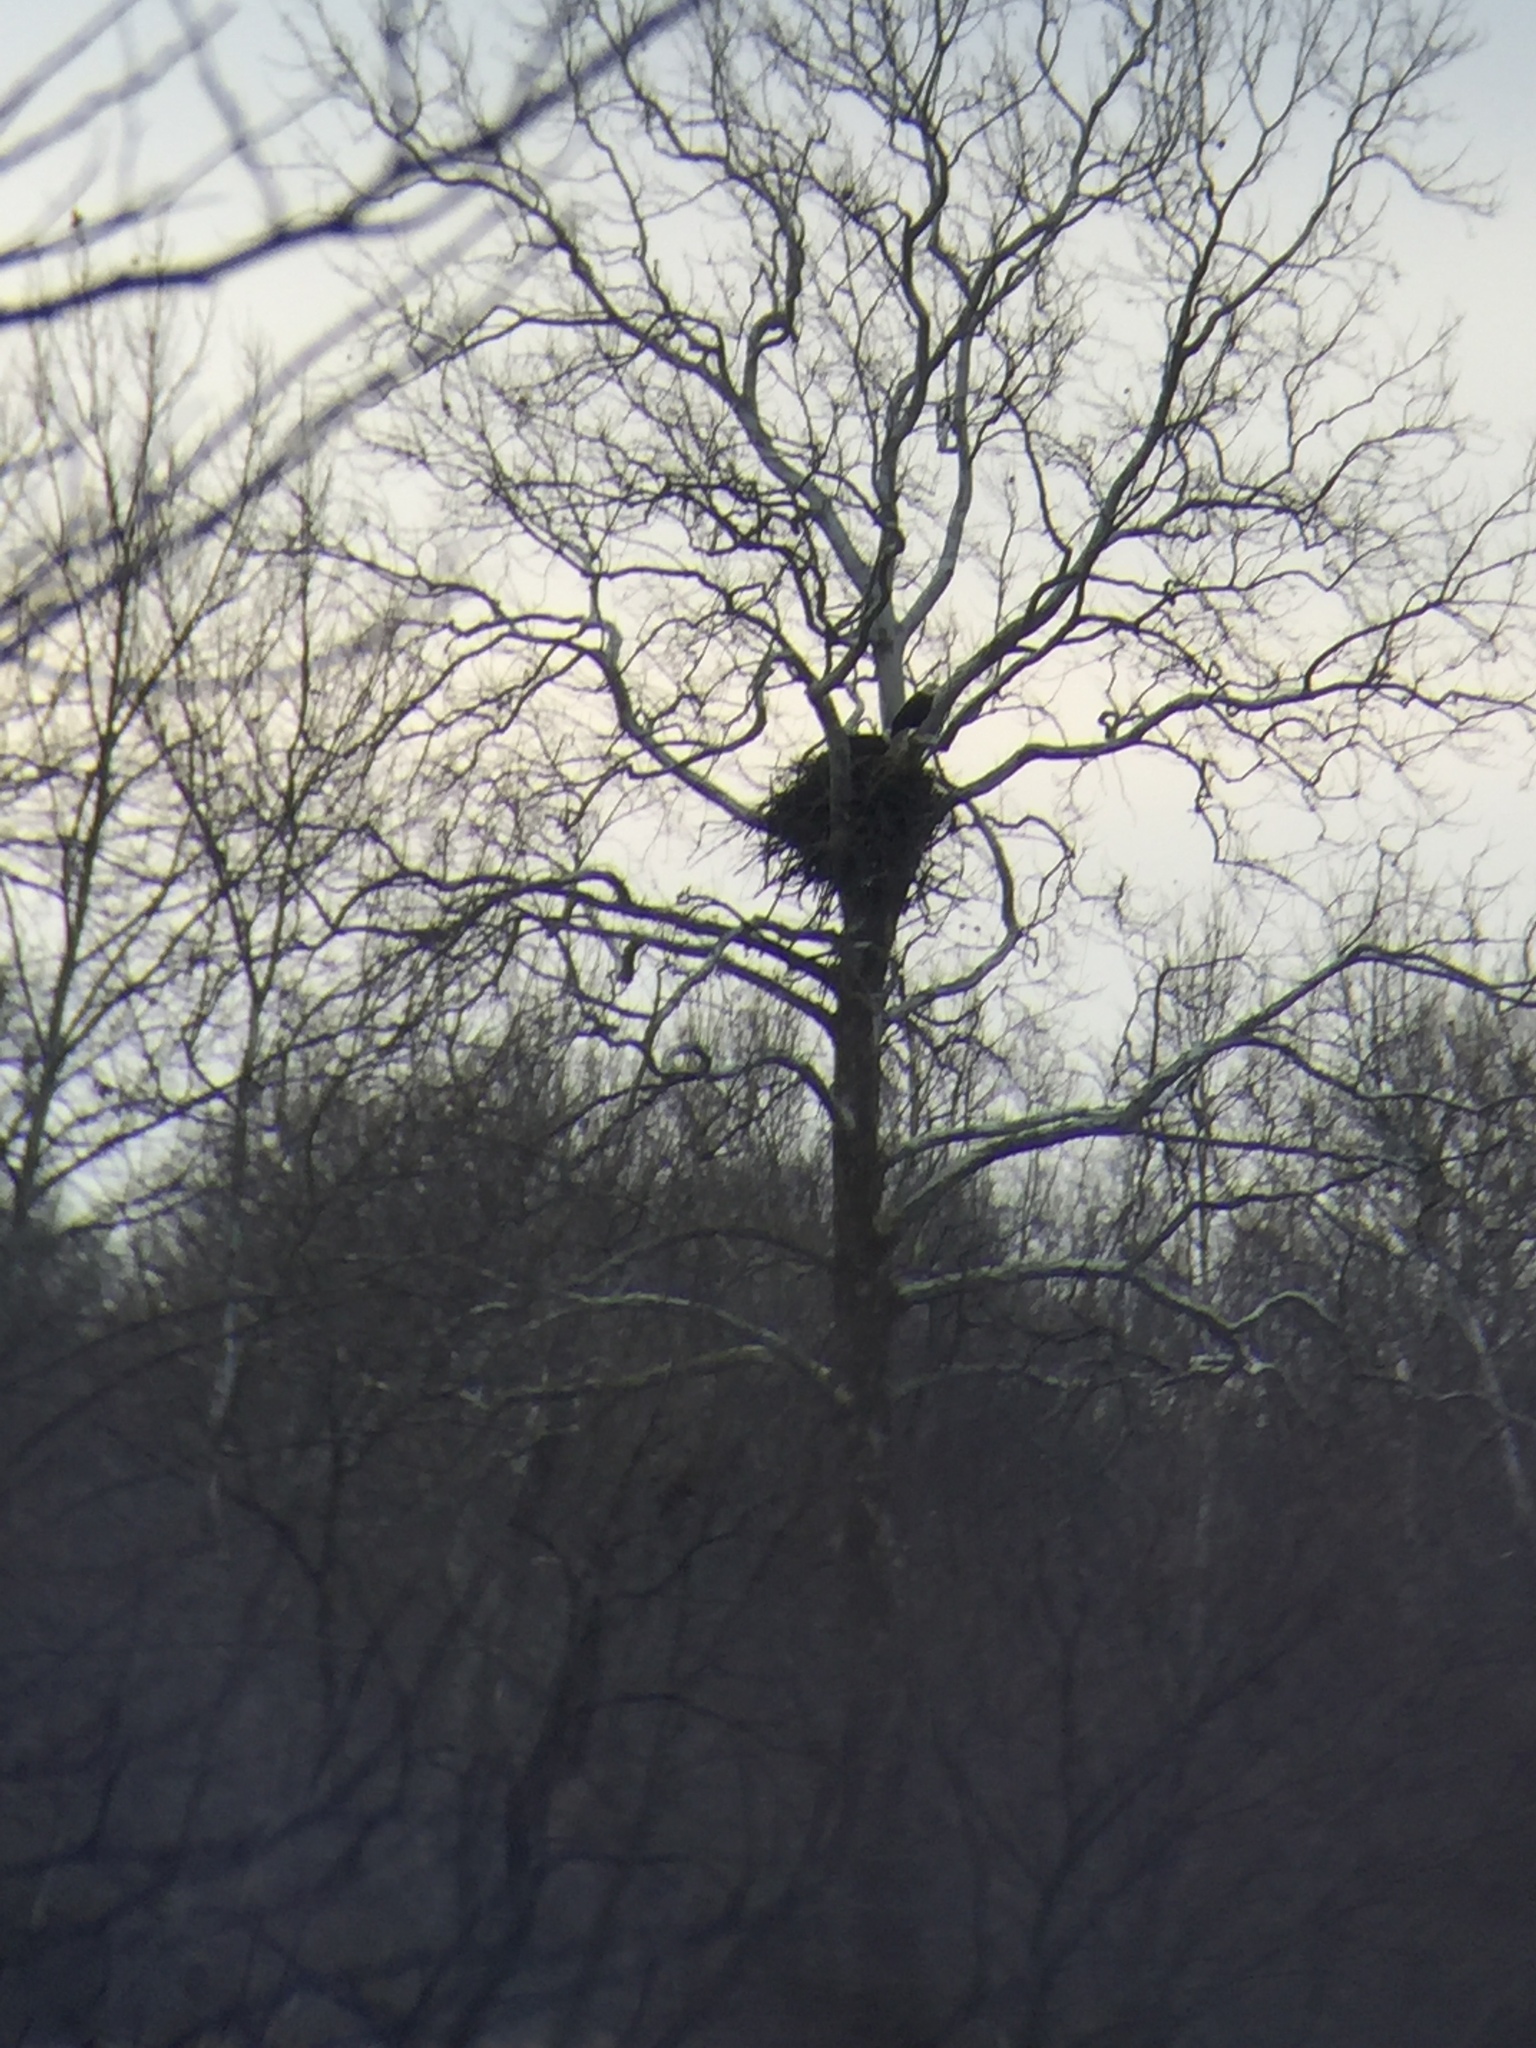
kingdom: Animalia
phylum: Chordata
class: Aves
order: Accipitriformes
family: Accipitridae
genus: Haliaeetus
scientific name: Haliaeetus leucocephalus
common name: Bald eagle
